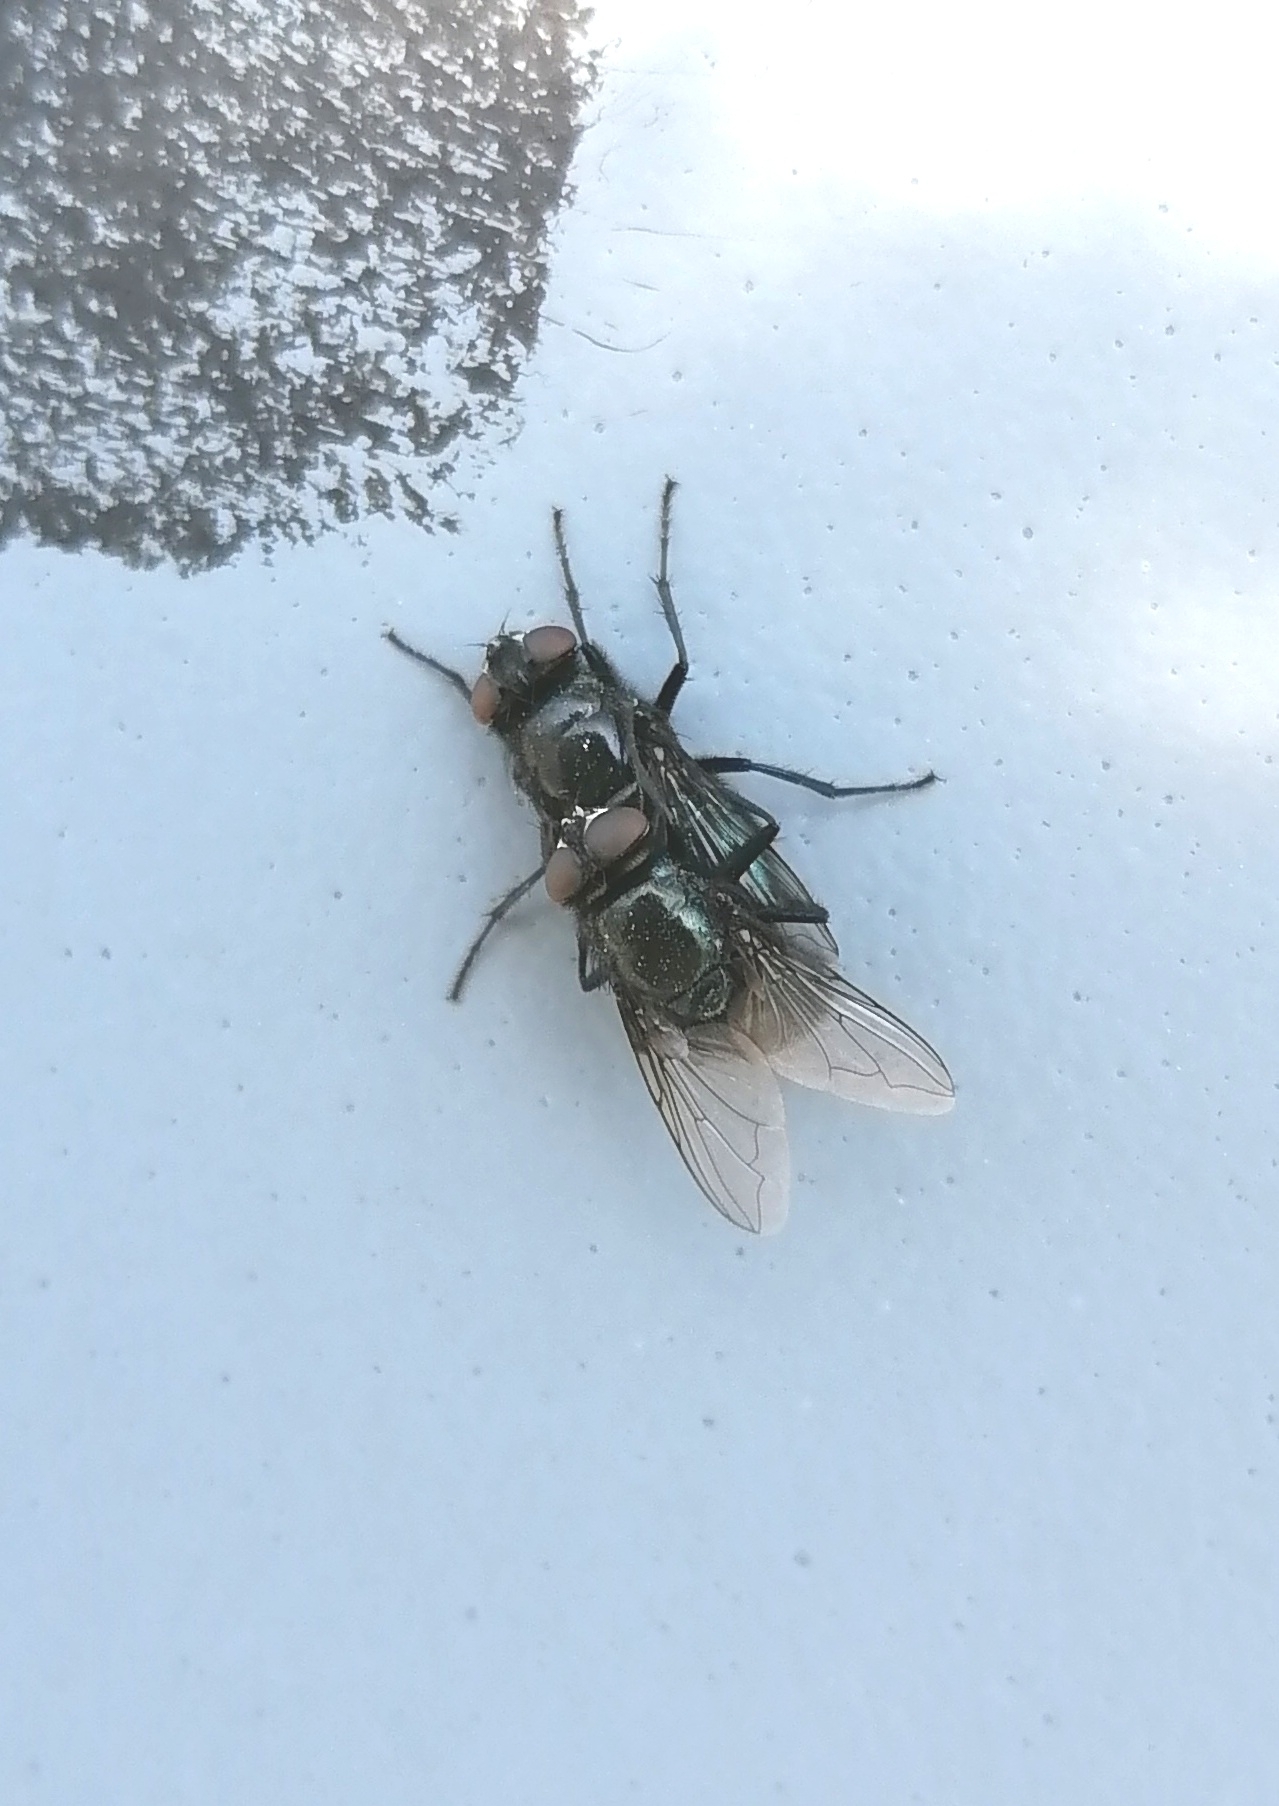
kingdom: Animalia
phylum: Arthropoda
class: Insecta
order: Diptera
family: Calliphoridae
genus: Protophormia
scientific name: Protophormia terraenovae
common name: Blackbottle
